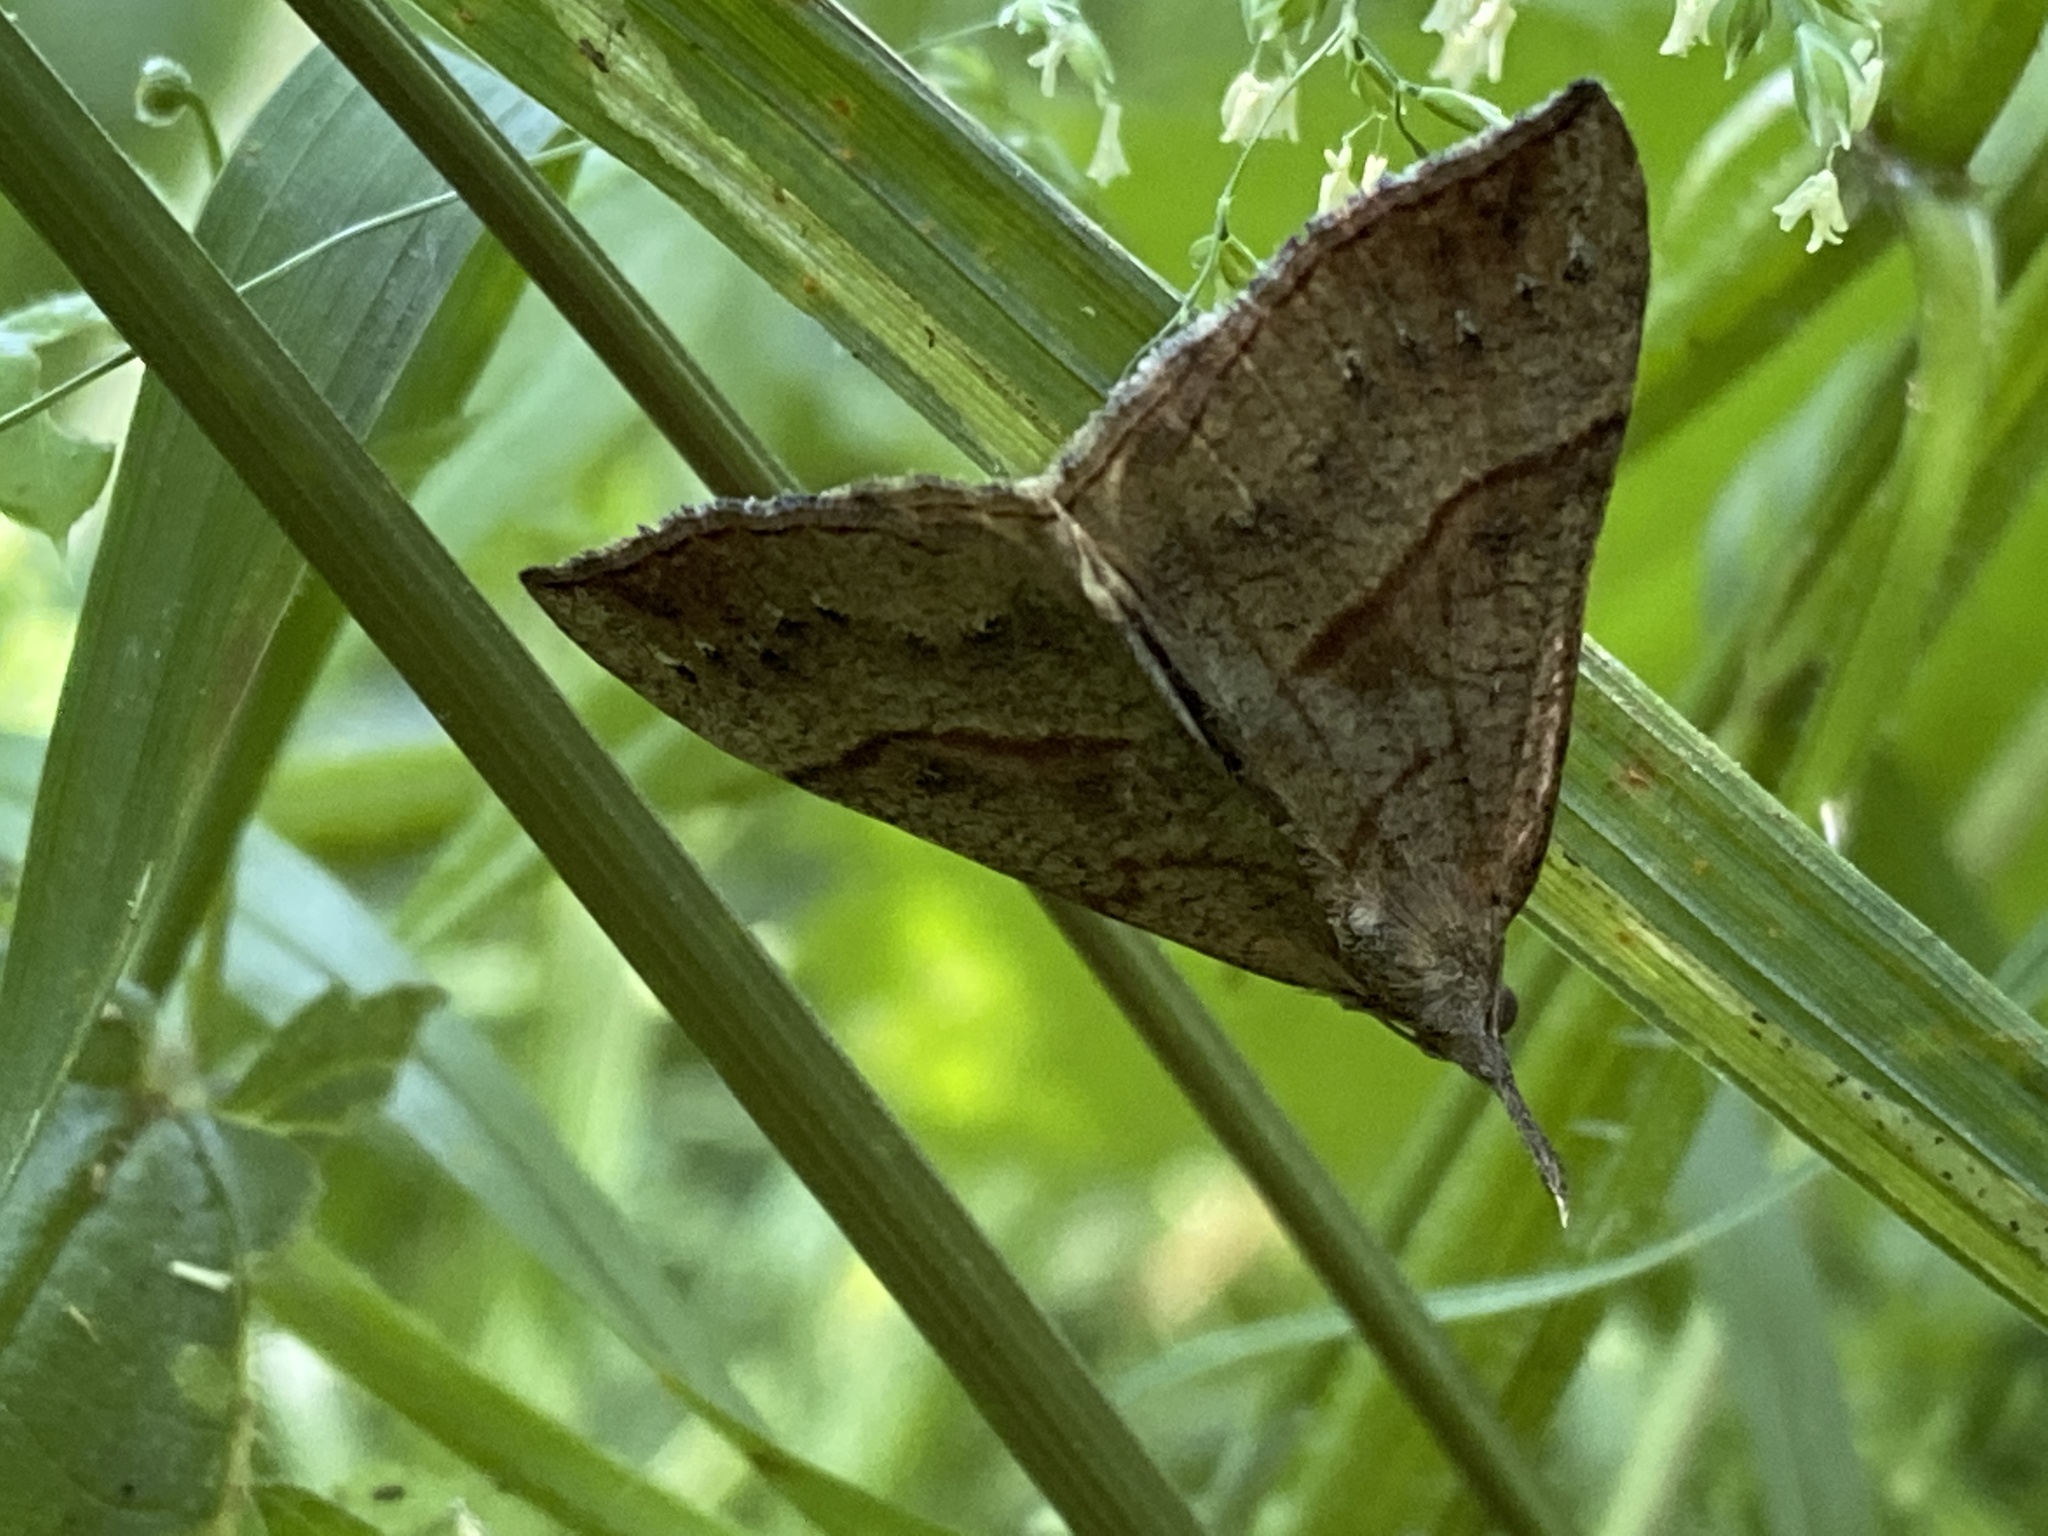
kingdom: Animalia
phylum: Arthropoda
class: Insecta
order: Lepidoptera
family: Erebidae
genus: Hypena
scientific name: Hypena proboscidalis
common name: Snout
